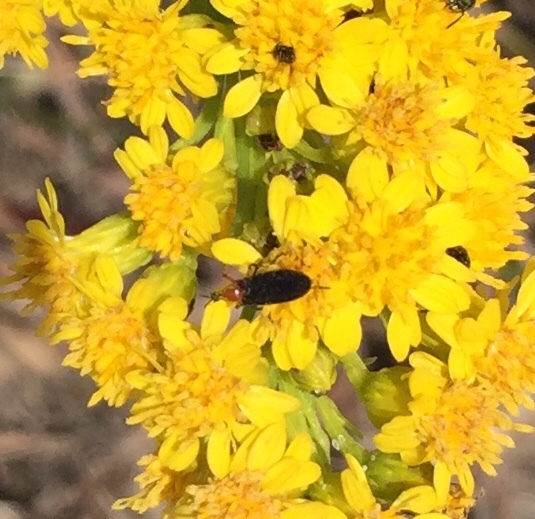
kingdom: Animalia
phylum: Arthropoda
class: Insecta
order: Diptera
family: Bibionidae
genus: Dilophus
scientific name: Dilophus spinipes
